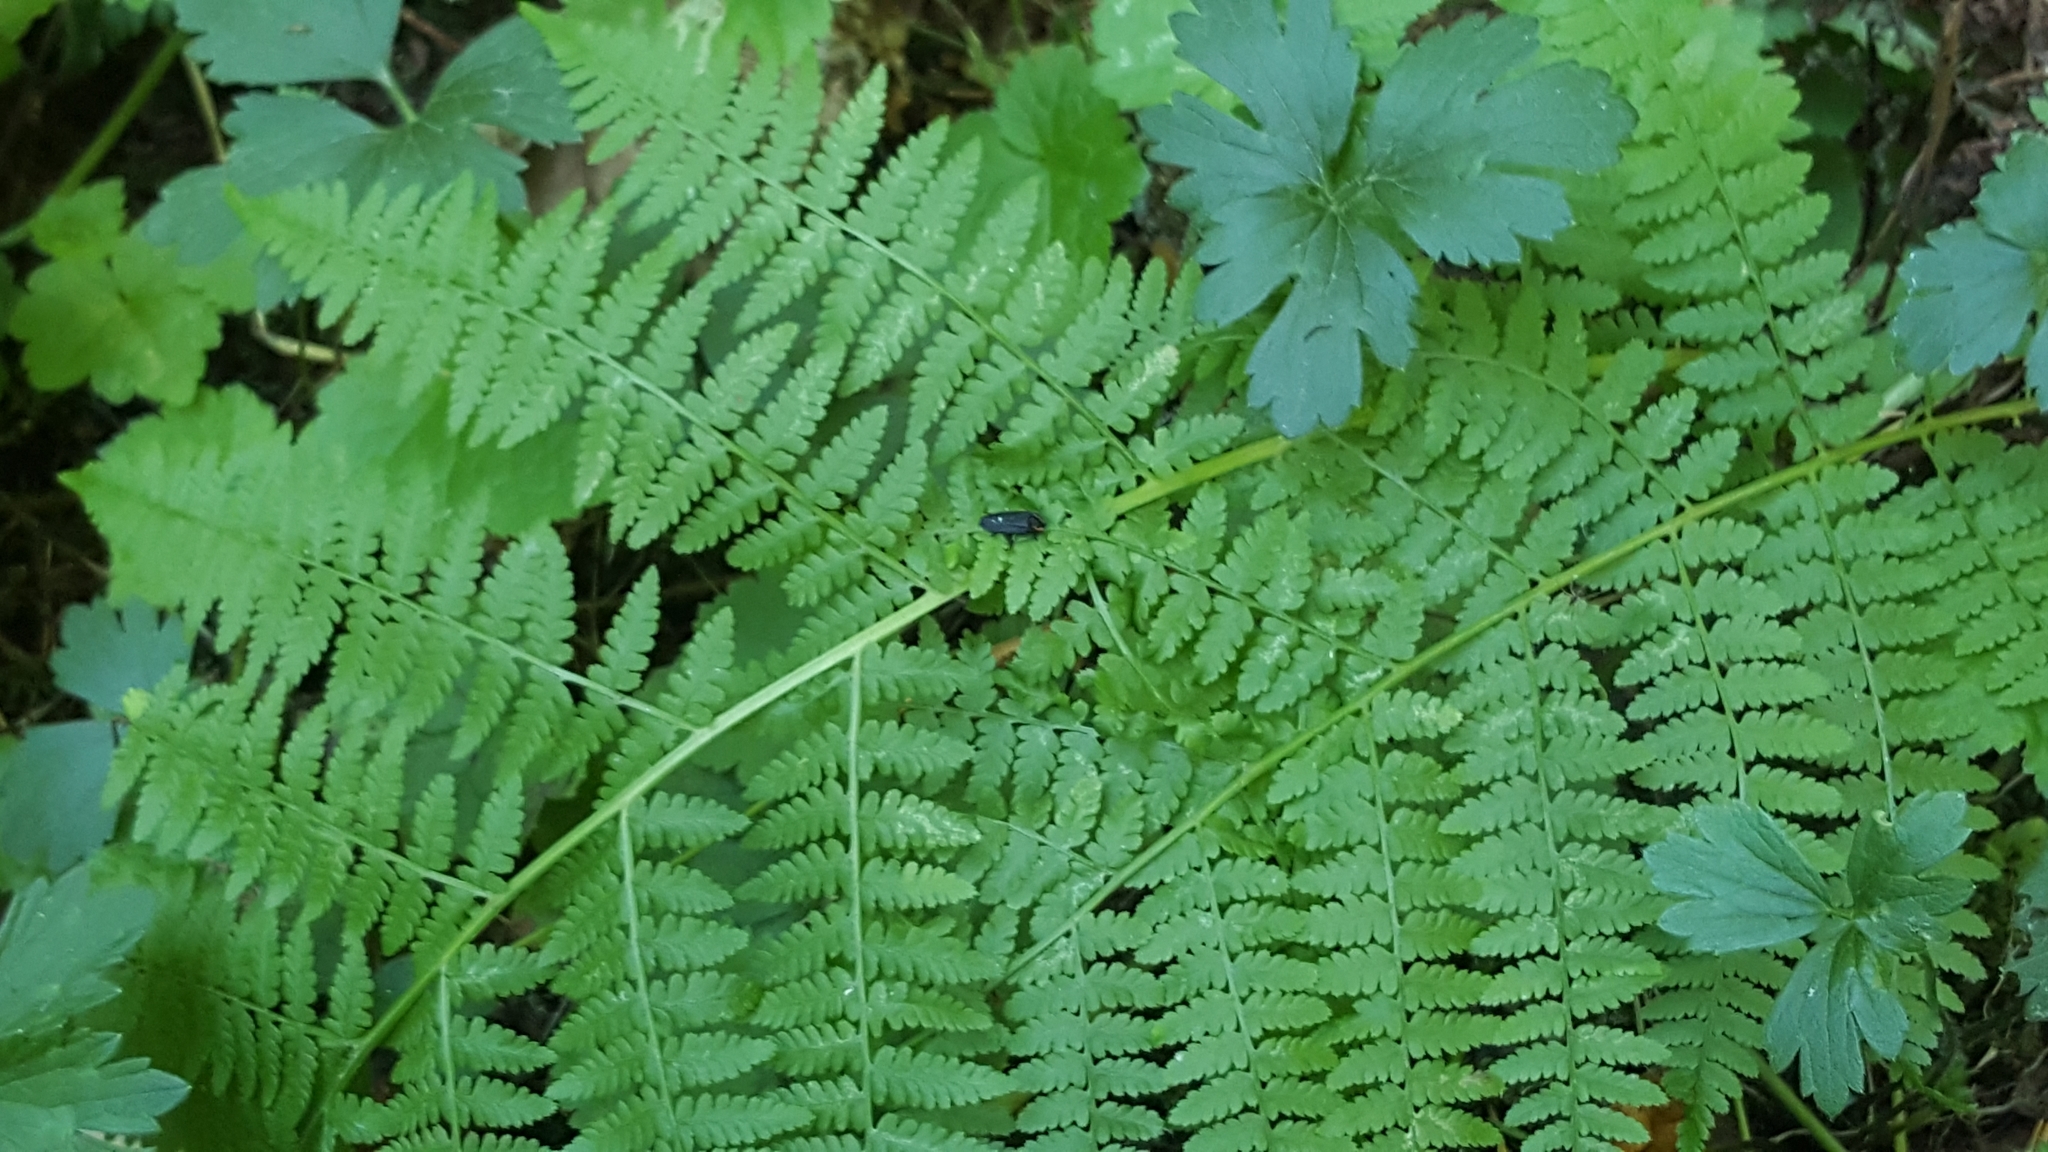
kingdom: Plantae
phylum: Tracheophyta
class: Polypodiopsida
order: Polypodiales
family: Athyriaceae
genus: Athyrium
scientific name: Athyrium cyclosorum
